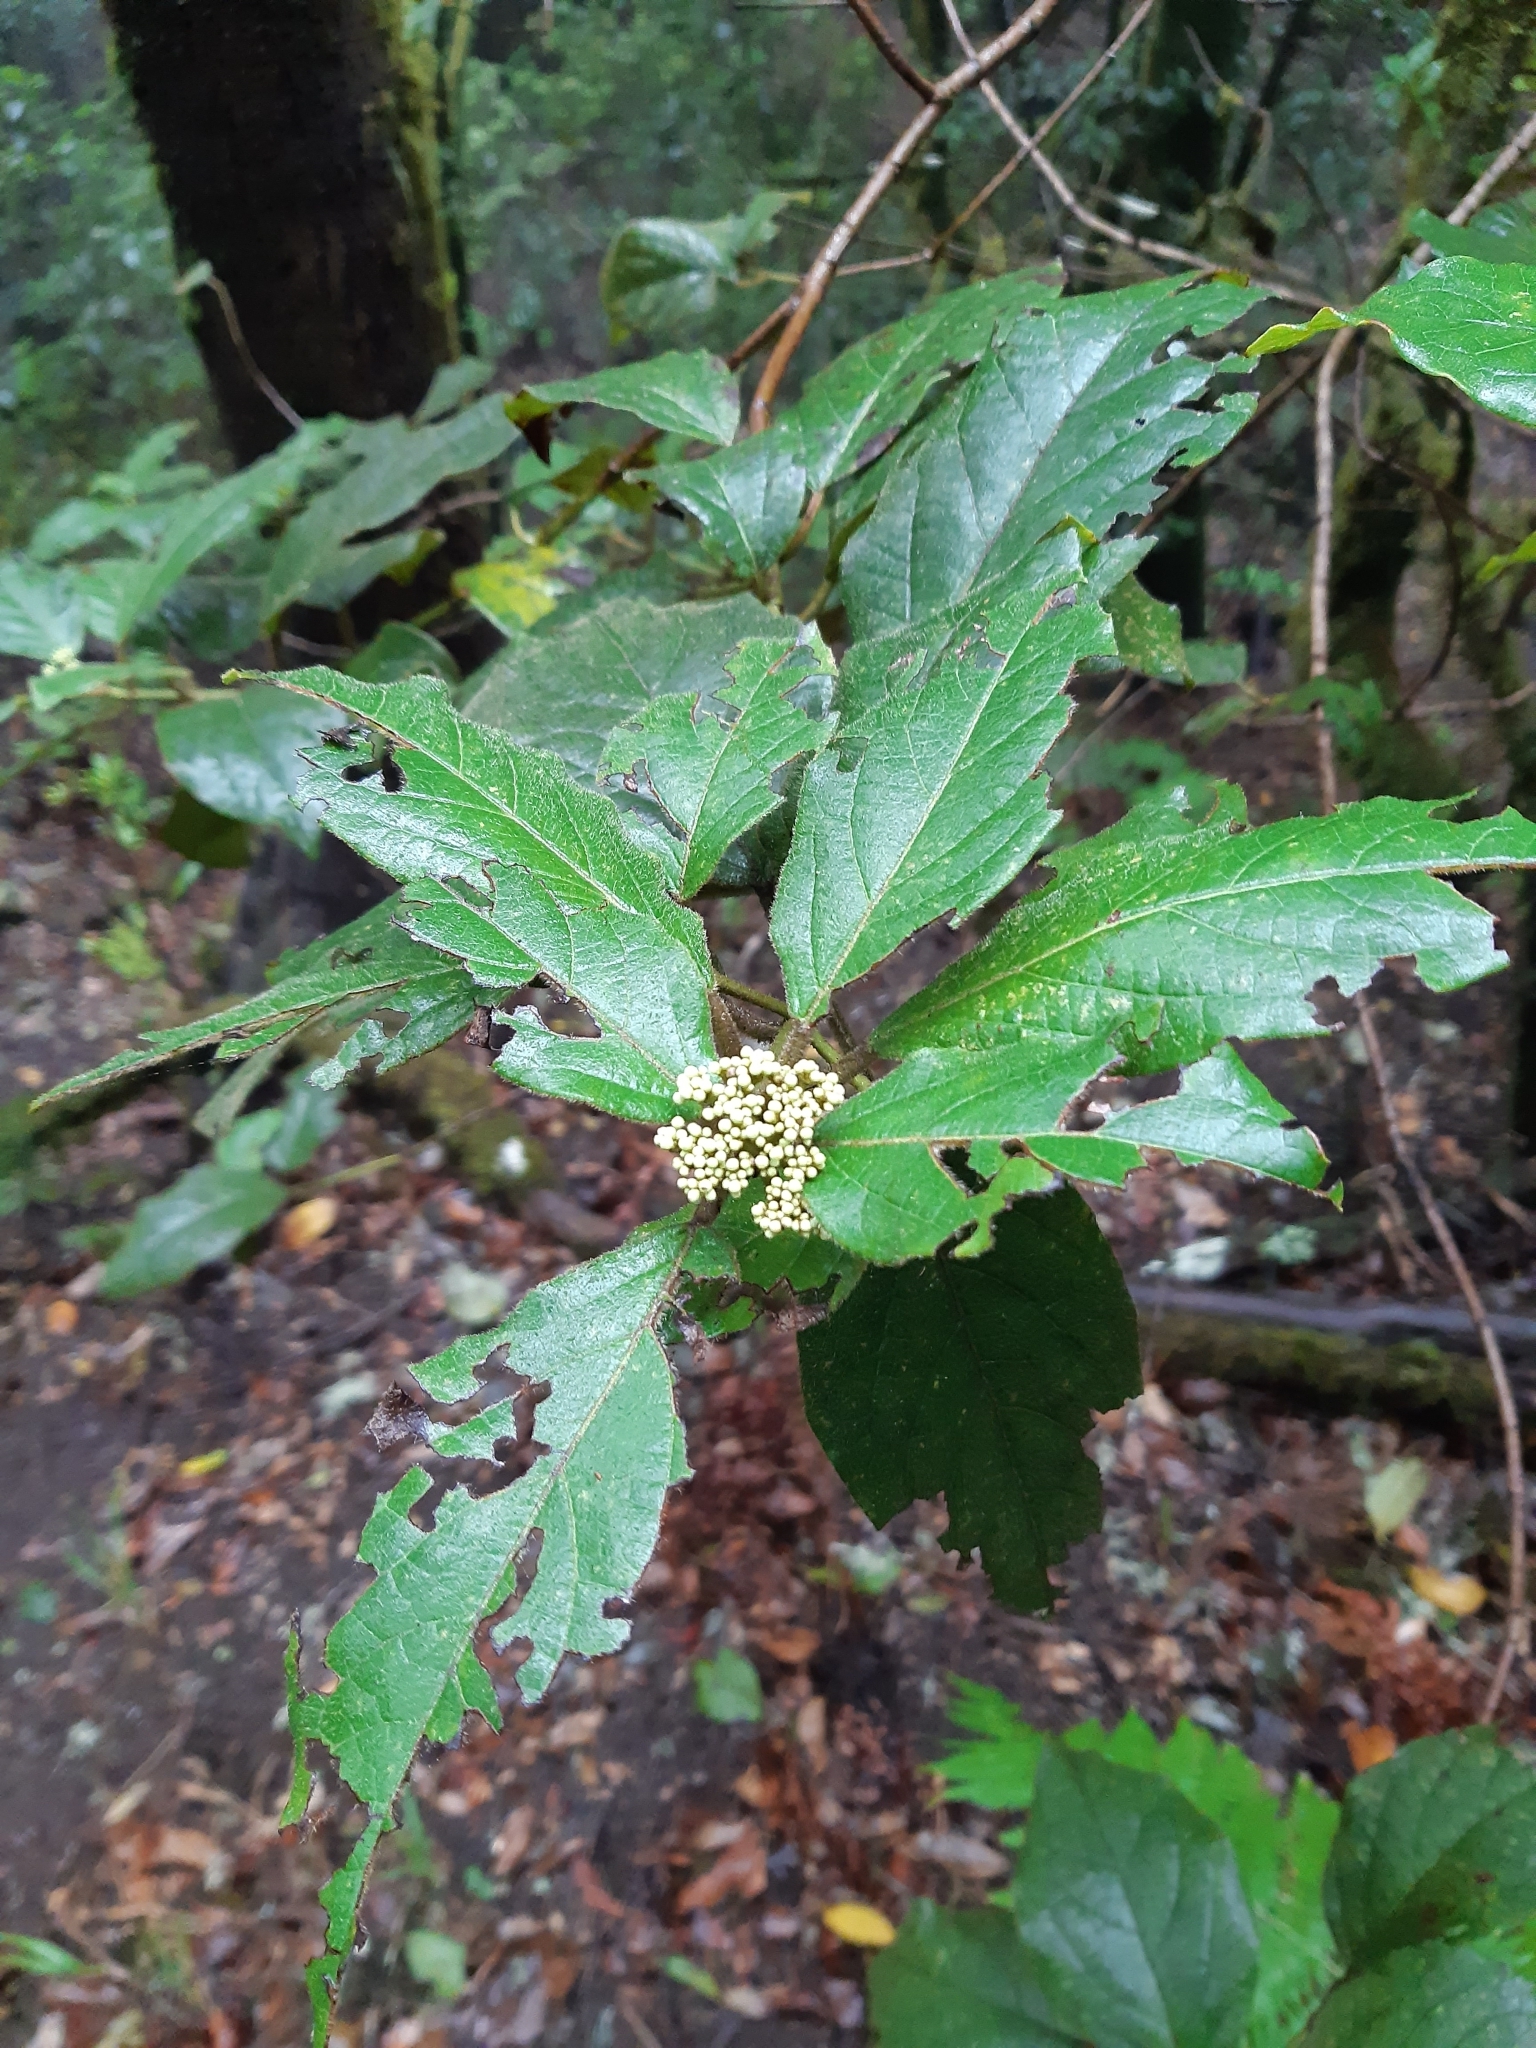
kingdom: Plantae
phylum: Tracheophyta
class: Magnoliopsida
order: Dipsacales
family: Viburnaceae
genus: Viburnum
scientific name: Viburnum rugosum
